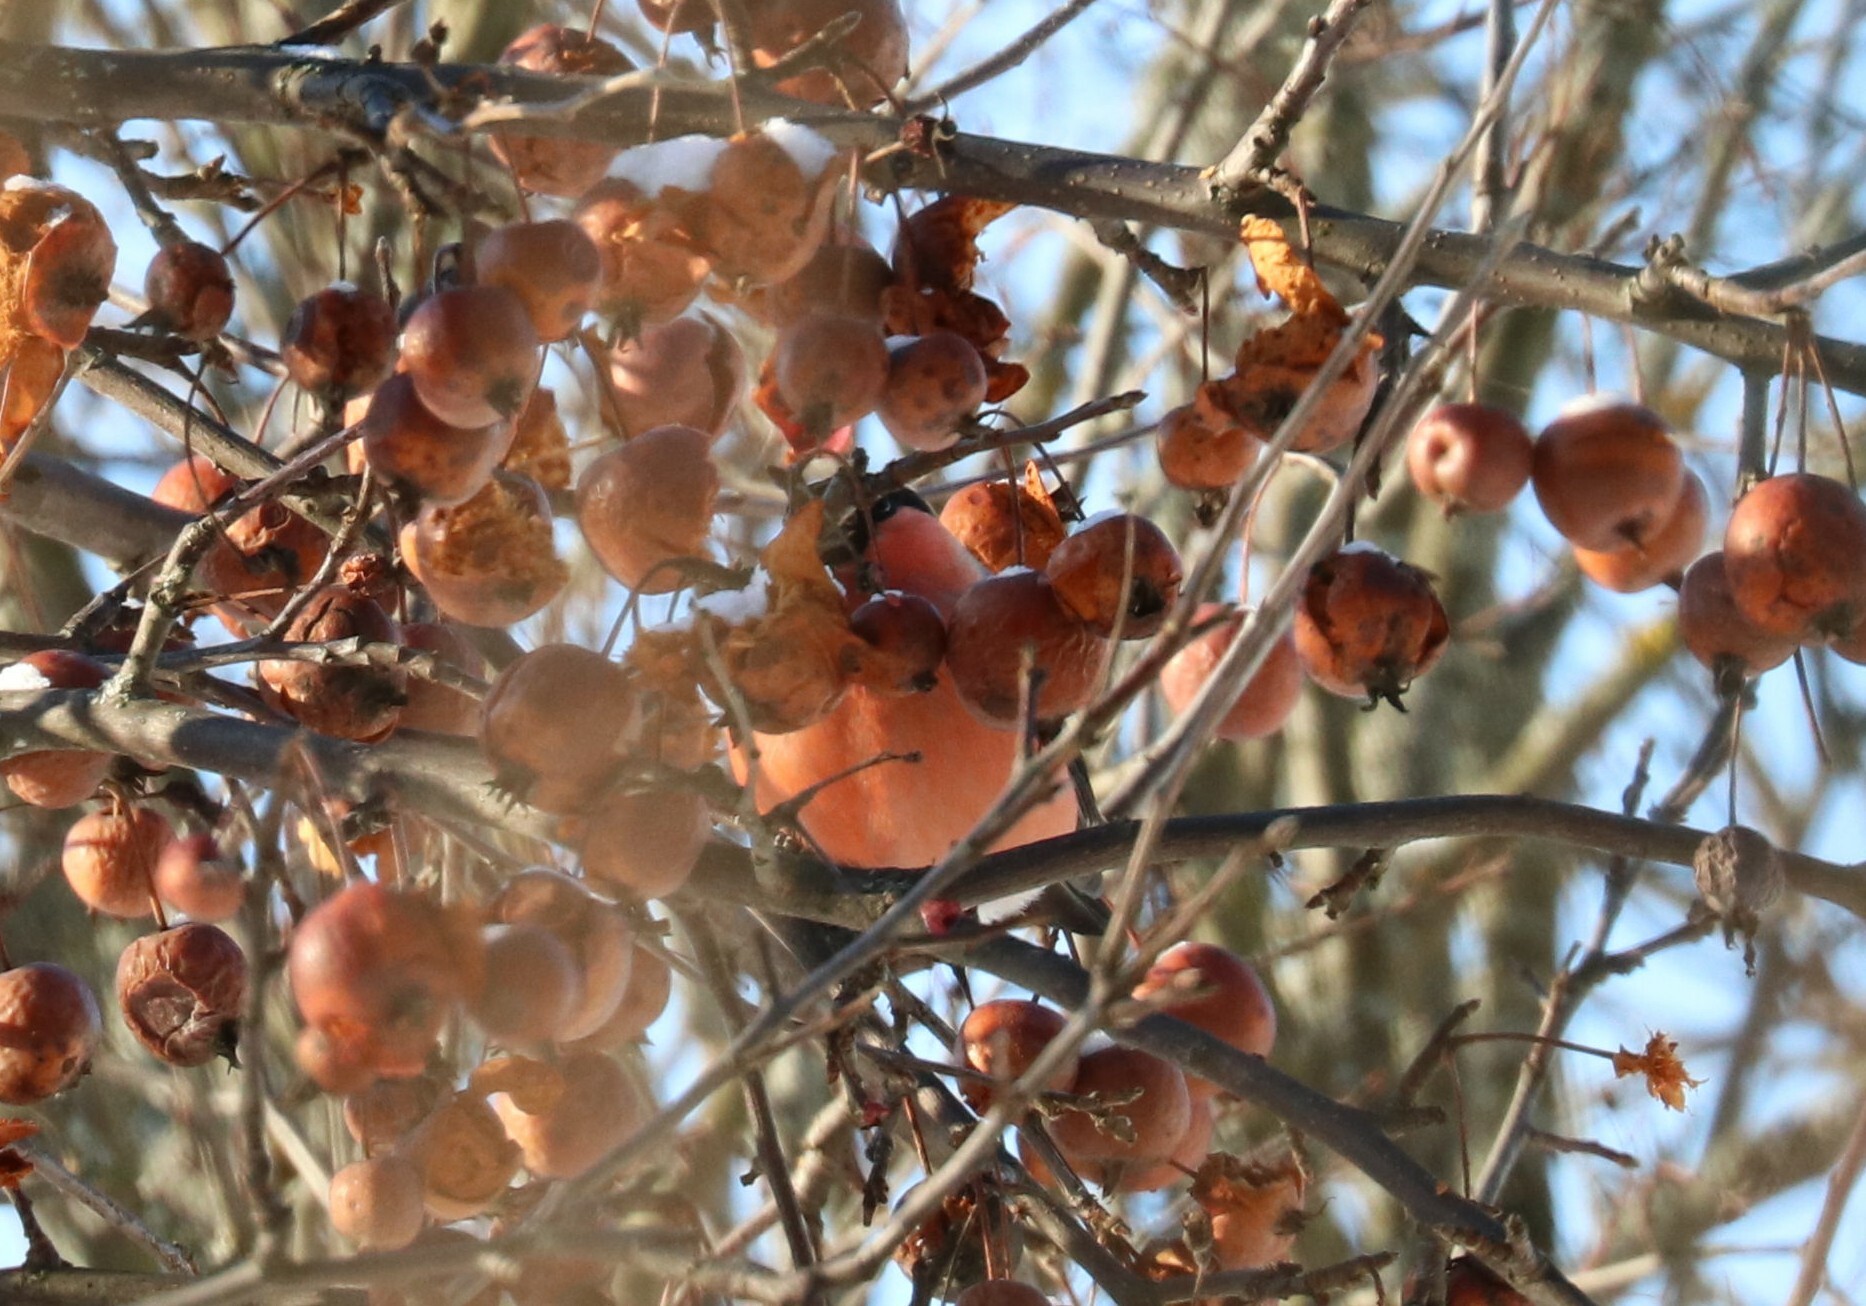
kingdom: Animalia
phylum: Chordata
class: Aves
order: Passeriformes
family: Fringillidae
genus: Pyrrhula
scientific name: Pyrrhula pyrrhula
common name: Eurasian bullfinch
